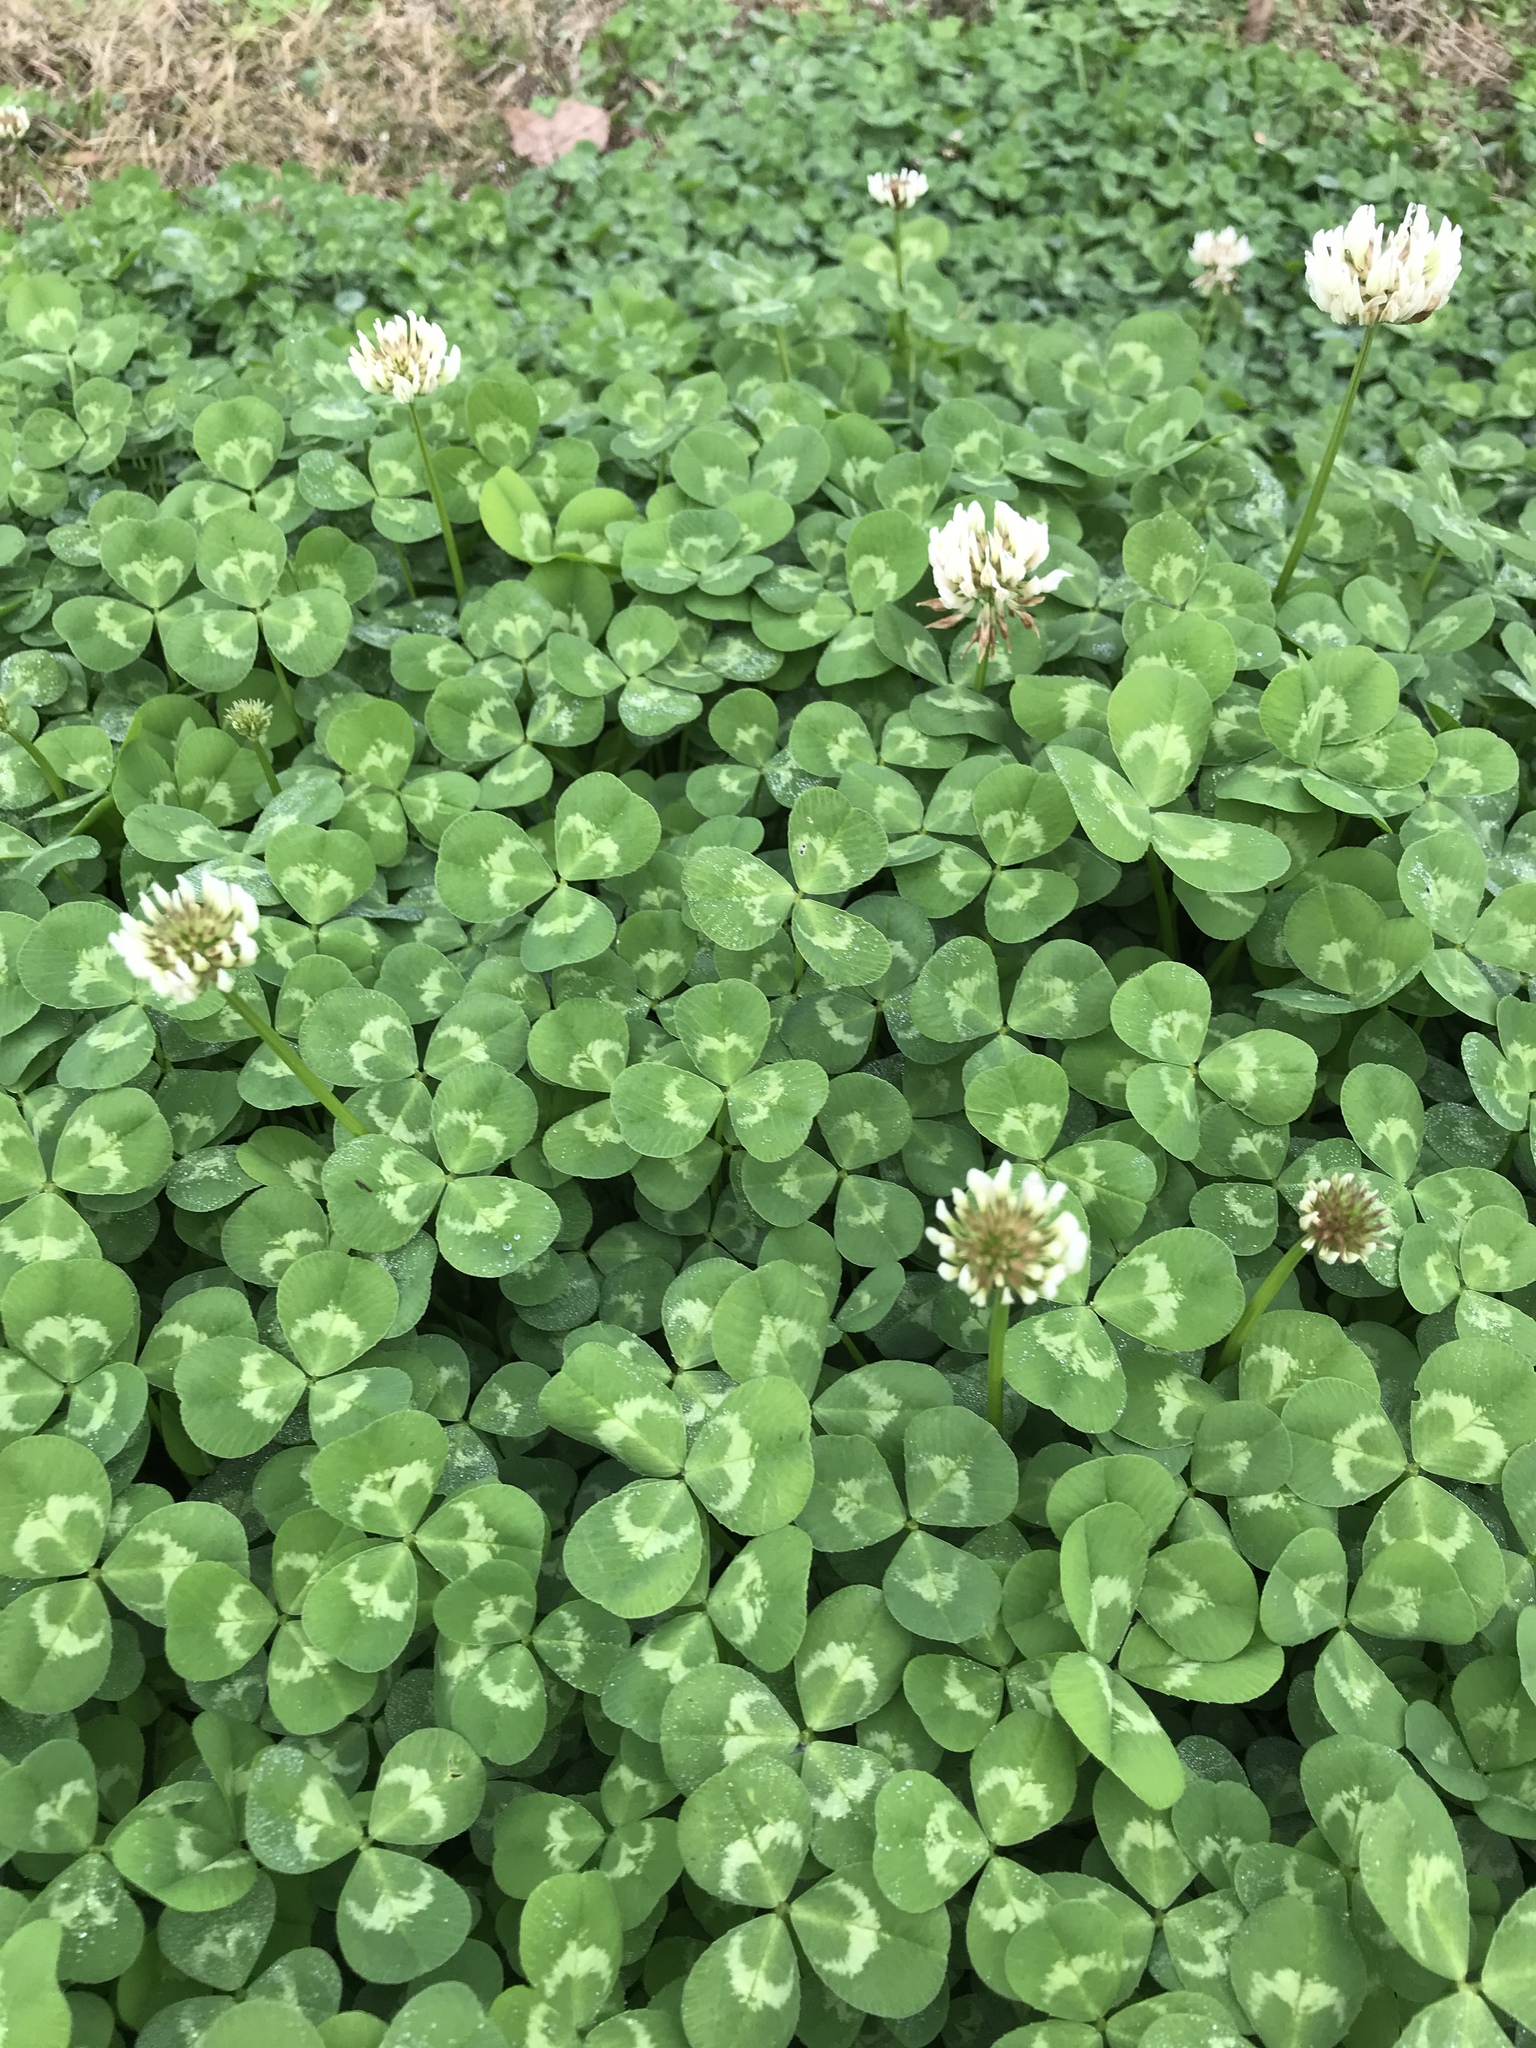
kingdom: Plantae
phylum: Tracheophyta
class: Magnoliopsida
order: Fabales
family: Fabaceae
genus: Trifolium
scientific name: Trifolium repens
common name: White clover
